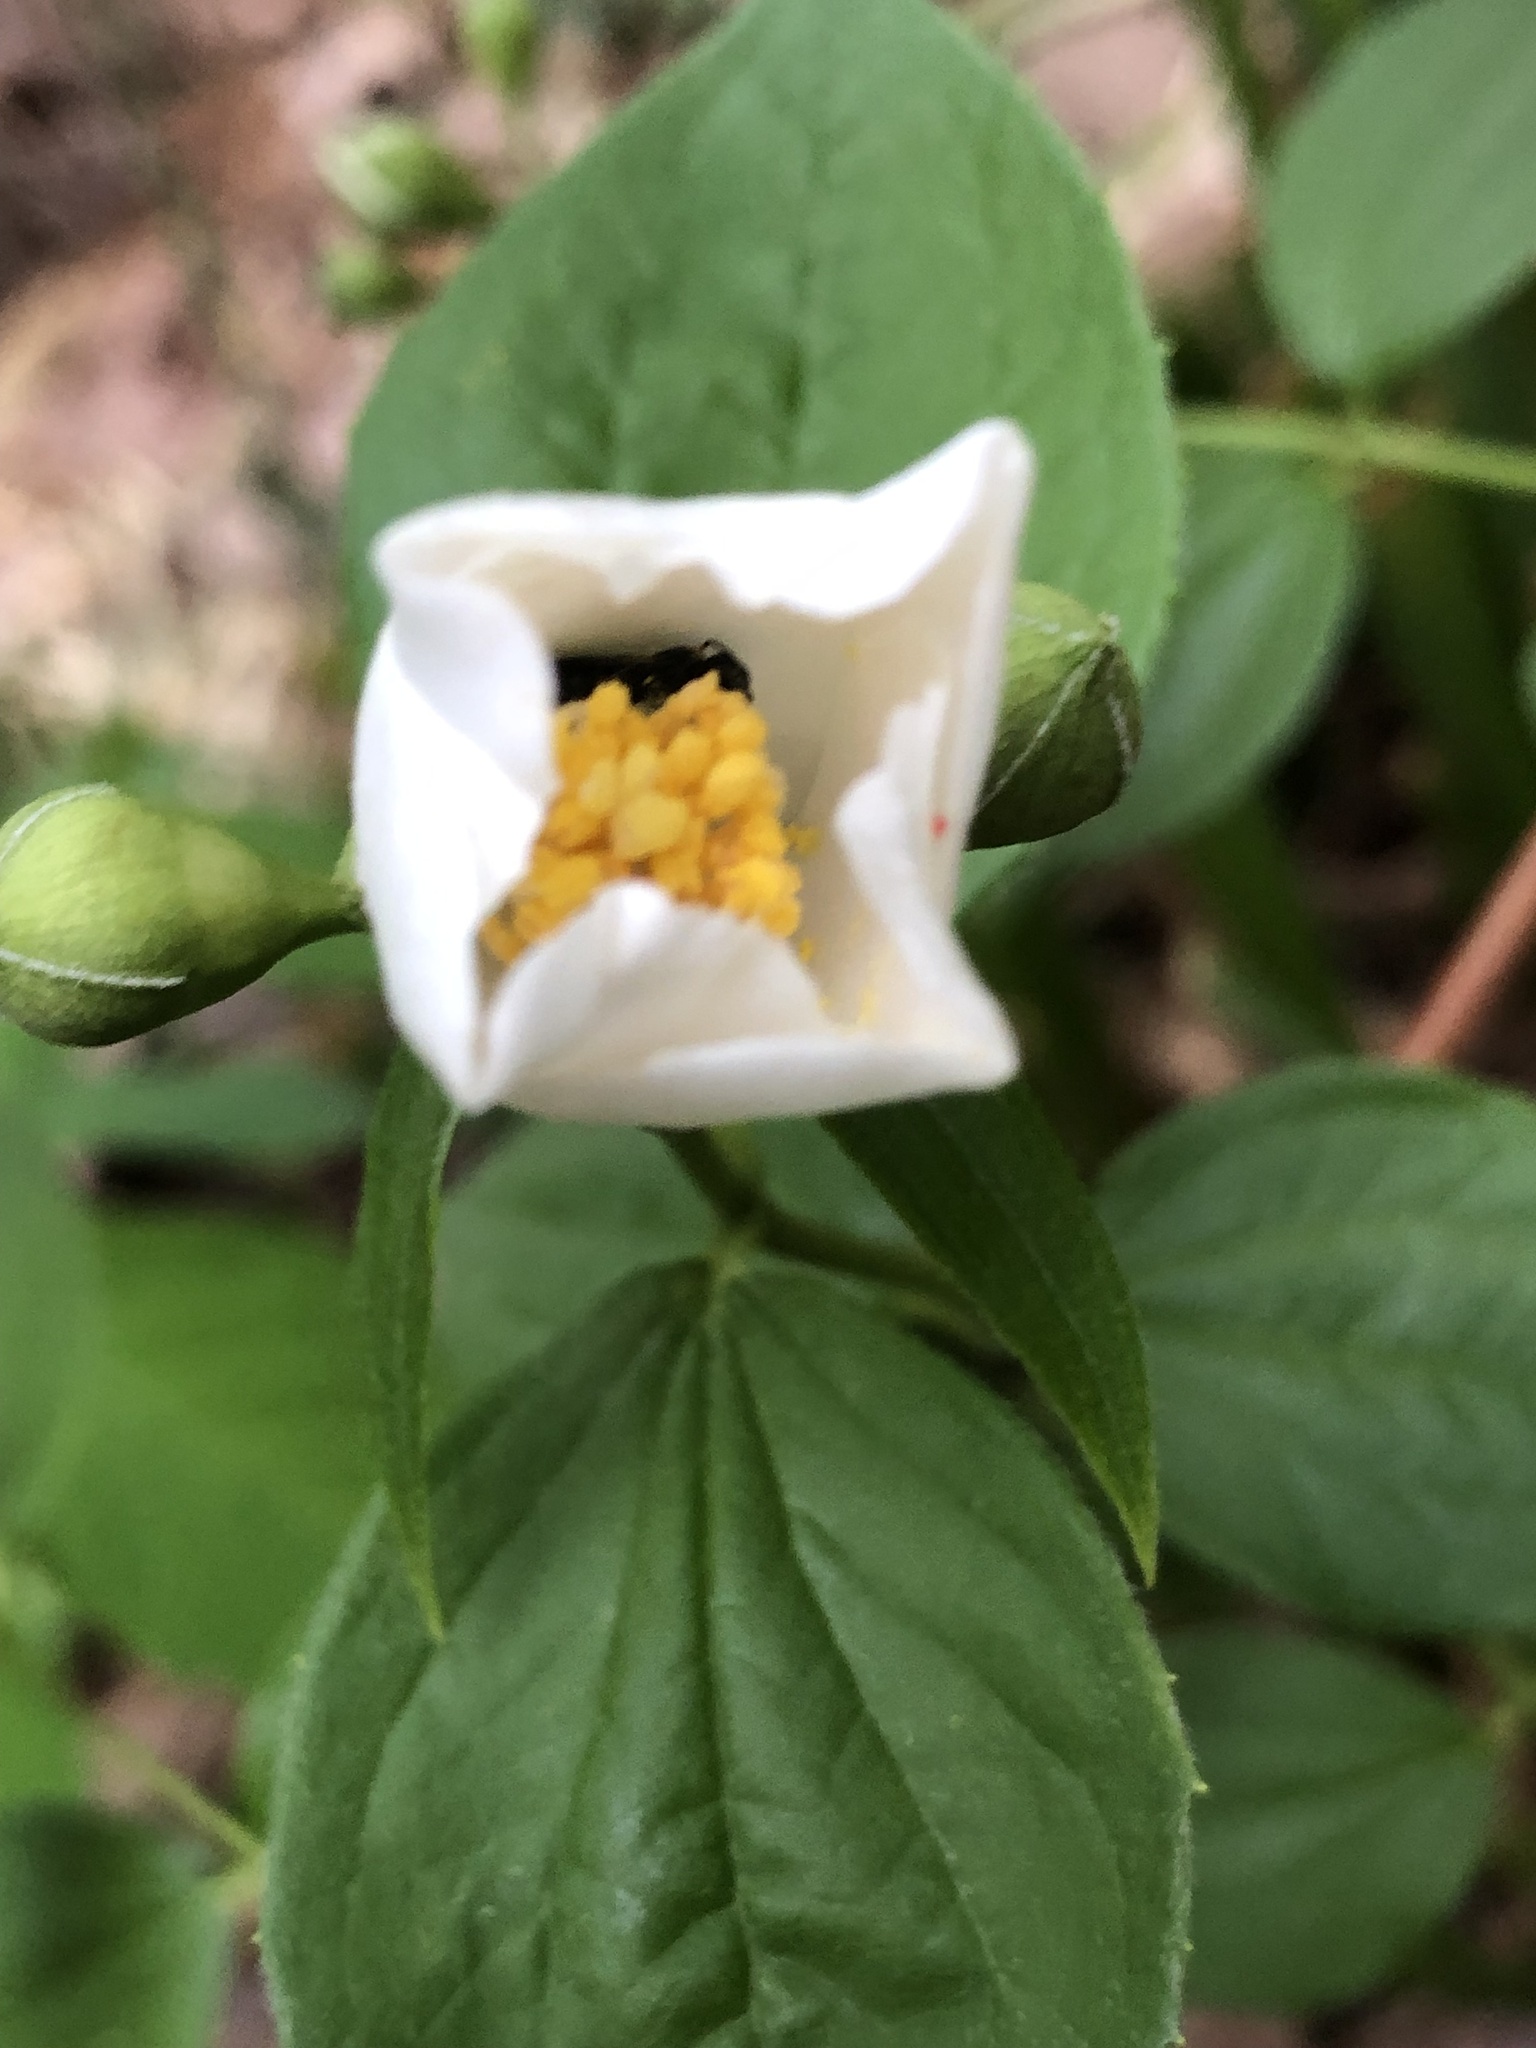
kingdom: Animalia
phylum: Arthropoda
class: Insecta
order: Hymenoptera
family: Megachilidae
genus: Chelostoma
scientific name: Chelostoma philadelphi
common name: Mock-orange scissor bee
